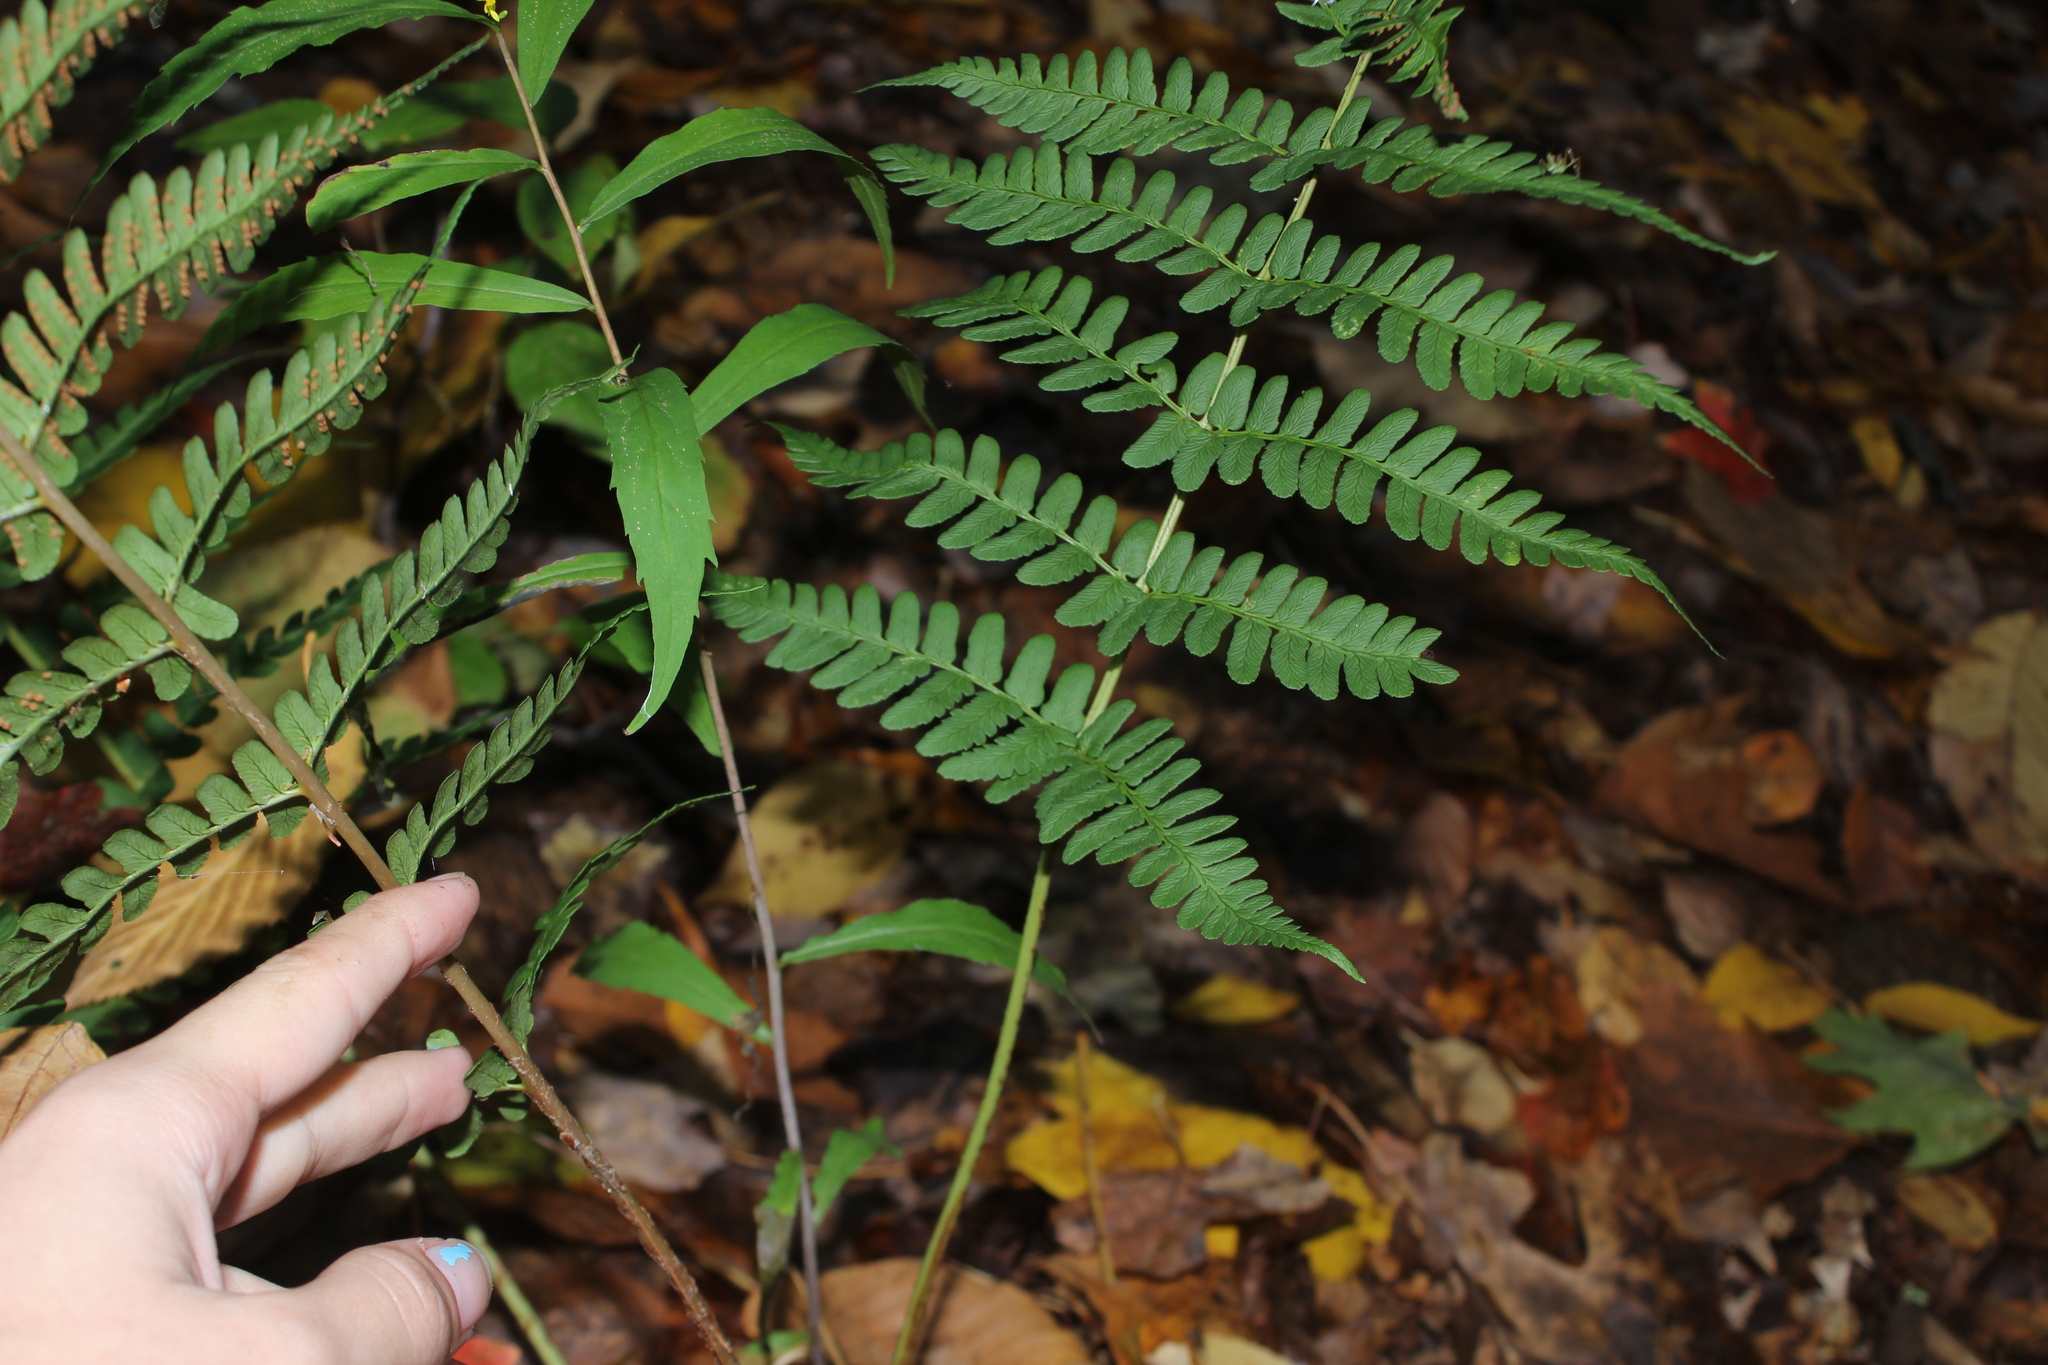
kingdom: Plantae
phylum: Tracheophyta
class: Polypodiopsida
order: Polypodiales
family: Dryopteridaceae
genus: Dryopteris
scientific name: Dryopteris marginalis
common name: Marginal wood fern
